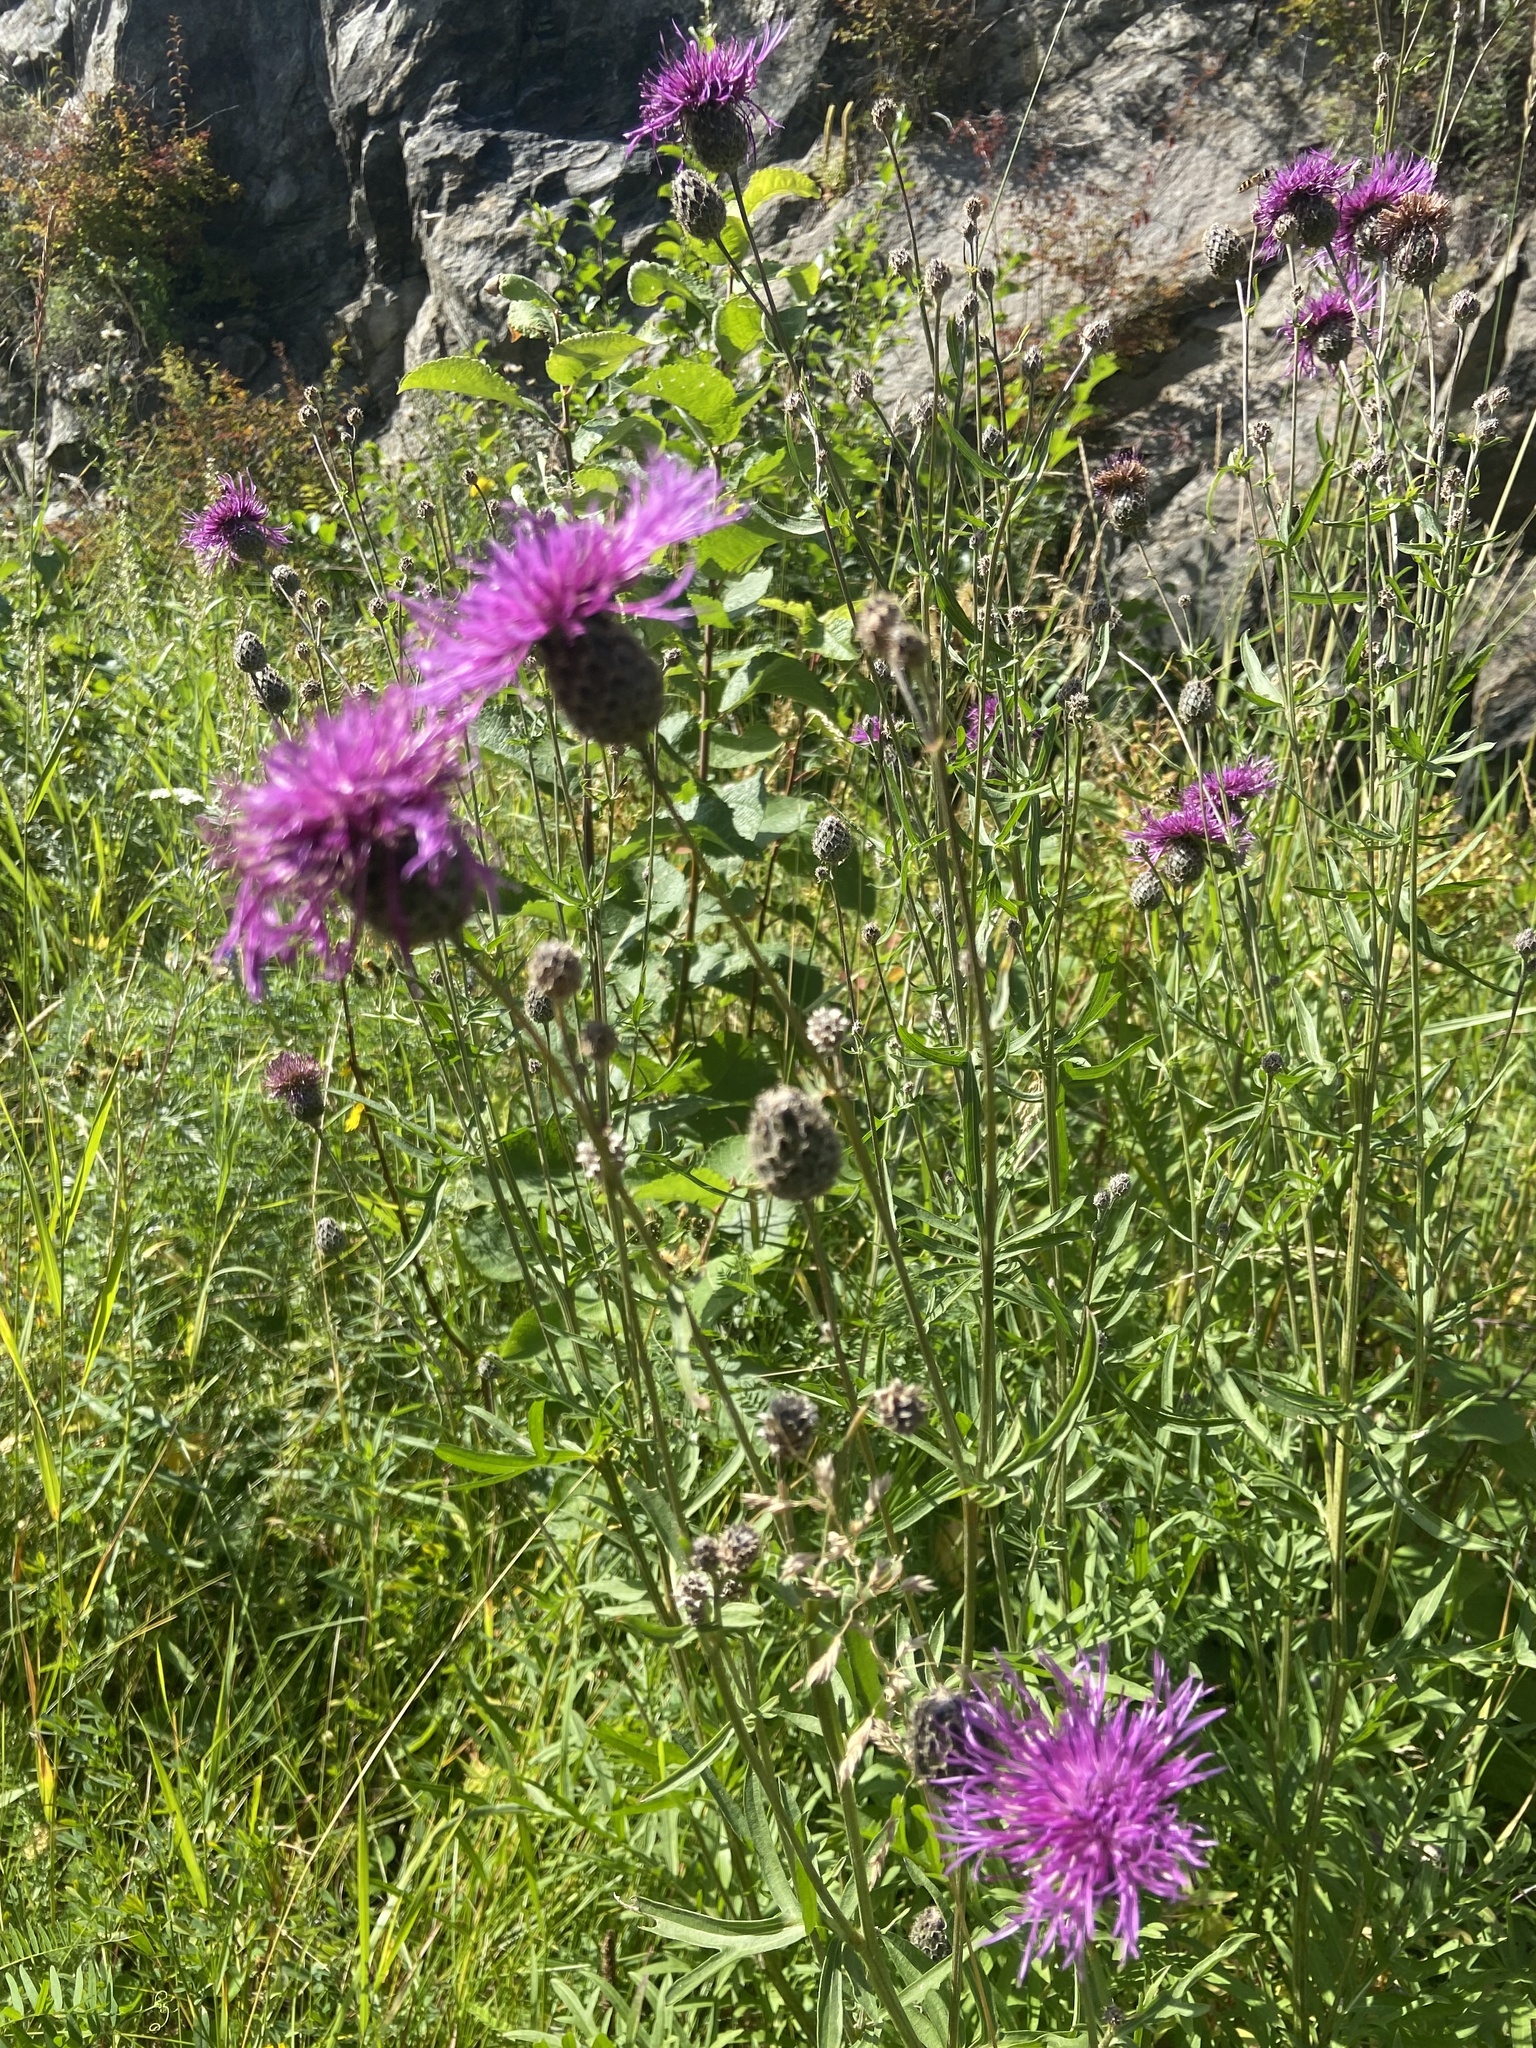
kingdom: Plantae
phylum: Tracheophyta
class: Magnoliopsida
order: Asterales
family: Asteraceae
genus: Centaurea
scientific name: Centaurea scabiosa
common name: Greater knapweed
